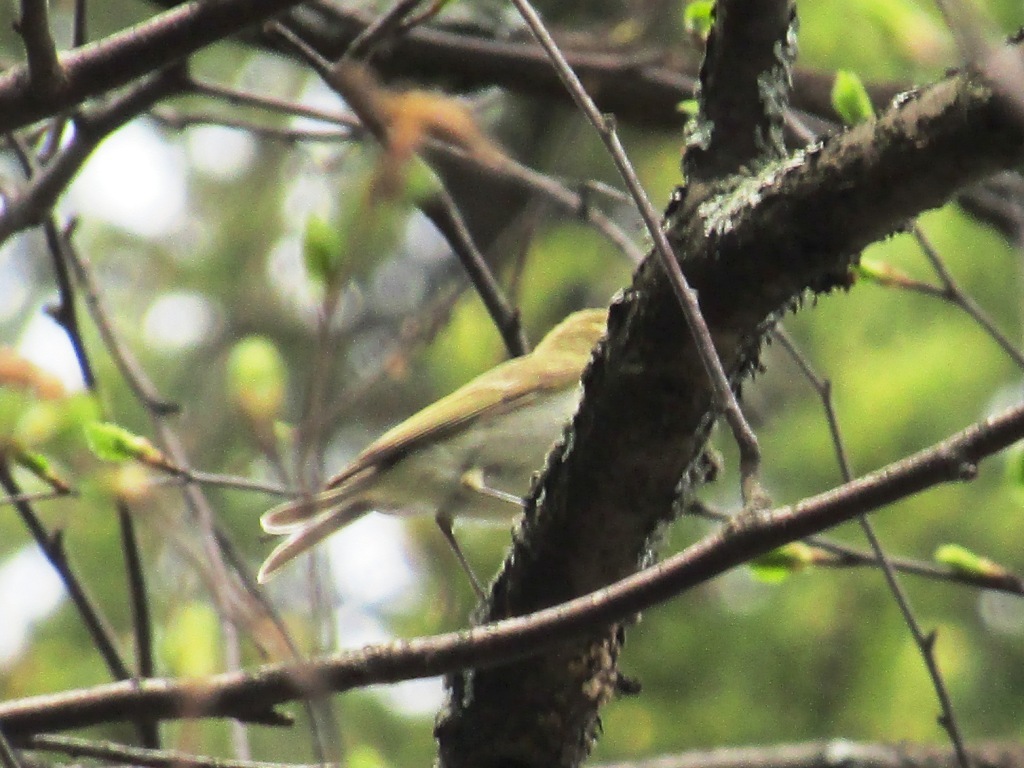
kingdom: Animalia
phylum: Chordata
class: Aves
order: Passeriformes
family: Phylloscopidae
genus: Phylloscopus
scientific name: Phylloscopus trochiloides
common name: Greenish warbler
